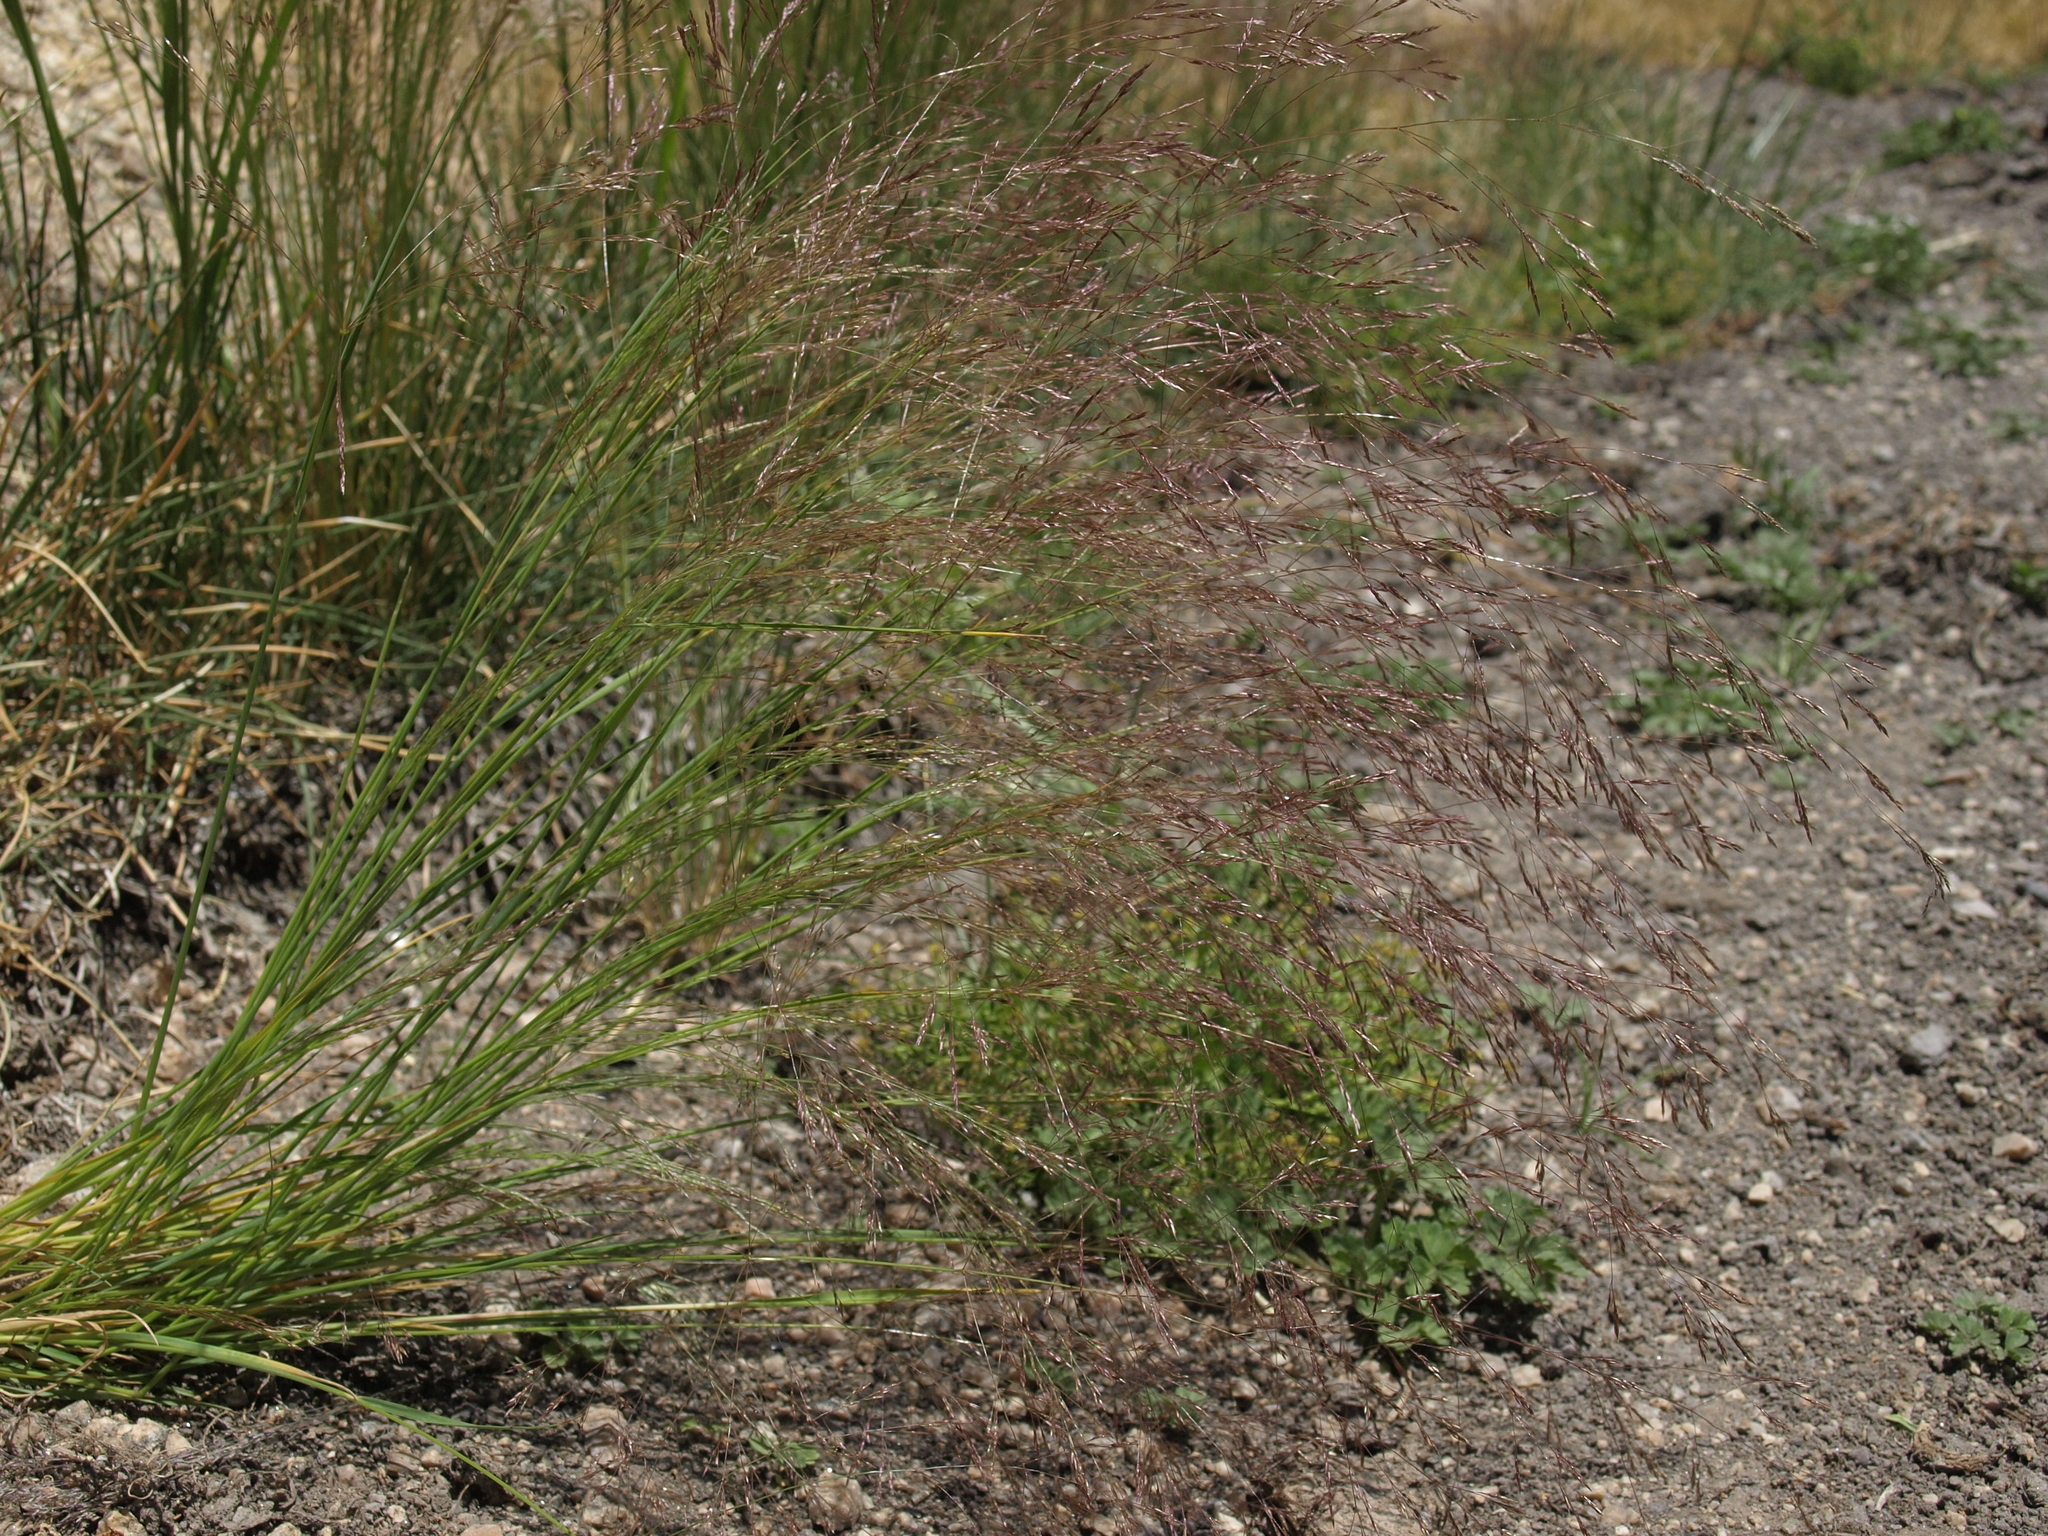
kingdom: Plantae
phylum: Tracheophyta
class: Liliopsida
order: Poales
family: Poaceae
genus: Agrostis
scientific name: Agrostis scabra
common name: Rough bent
